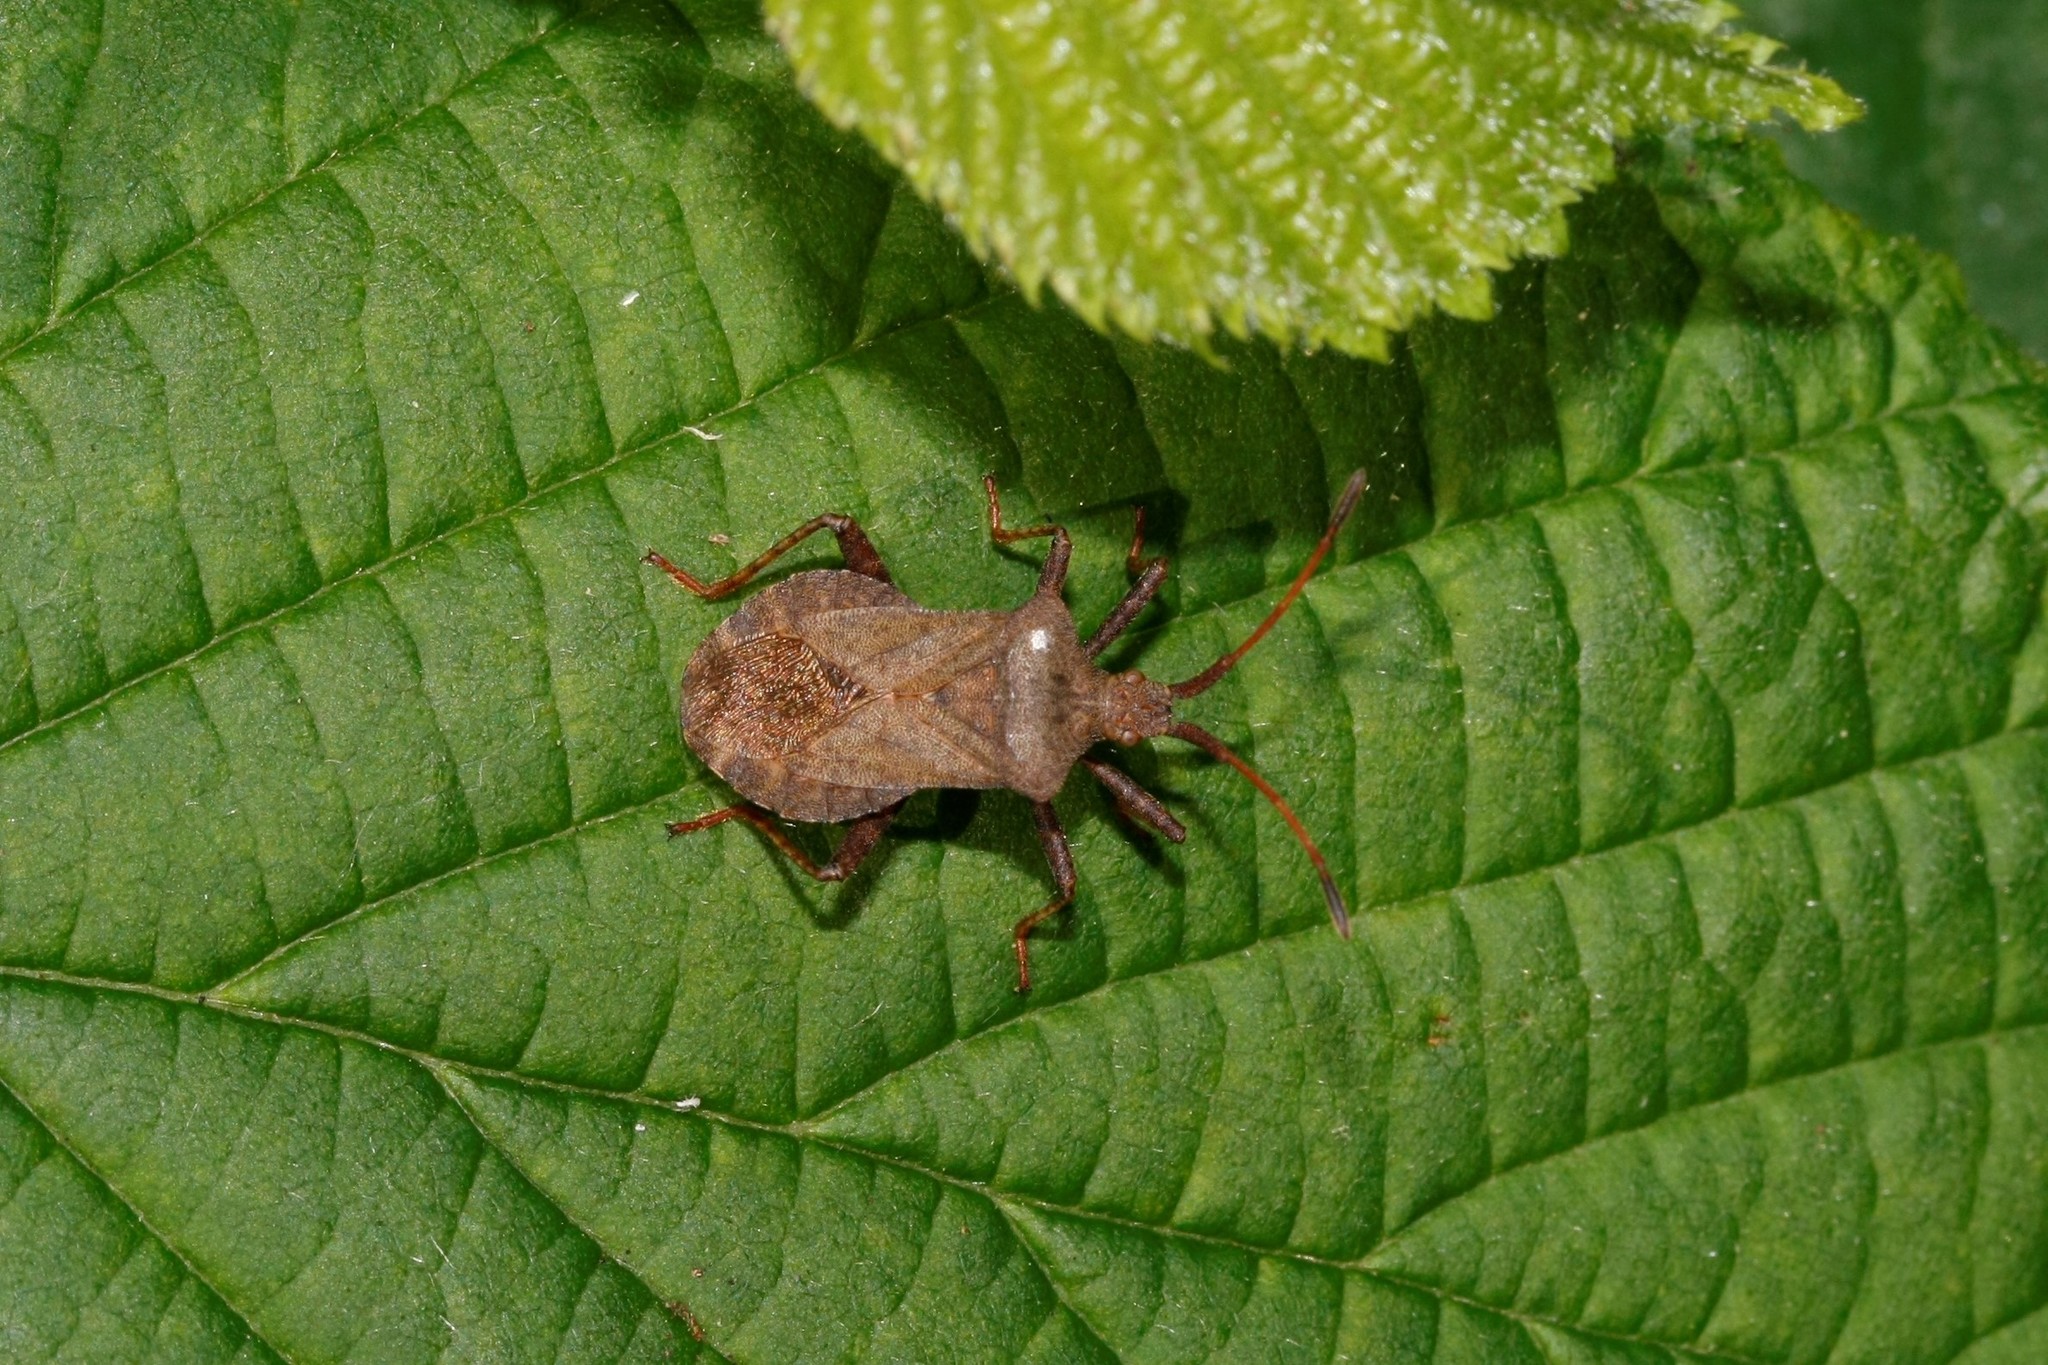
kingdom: Animalia
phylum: Arthropoda
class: Insecta
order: Hemiptera
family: Coreidae
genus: Coreus
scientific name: Coreus marginatus
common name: Dock bug
